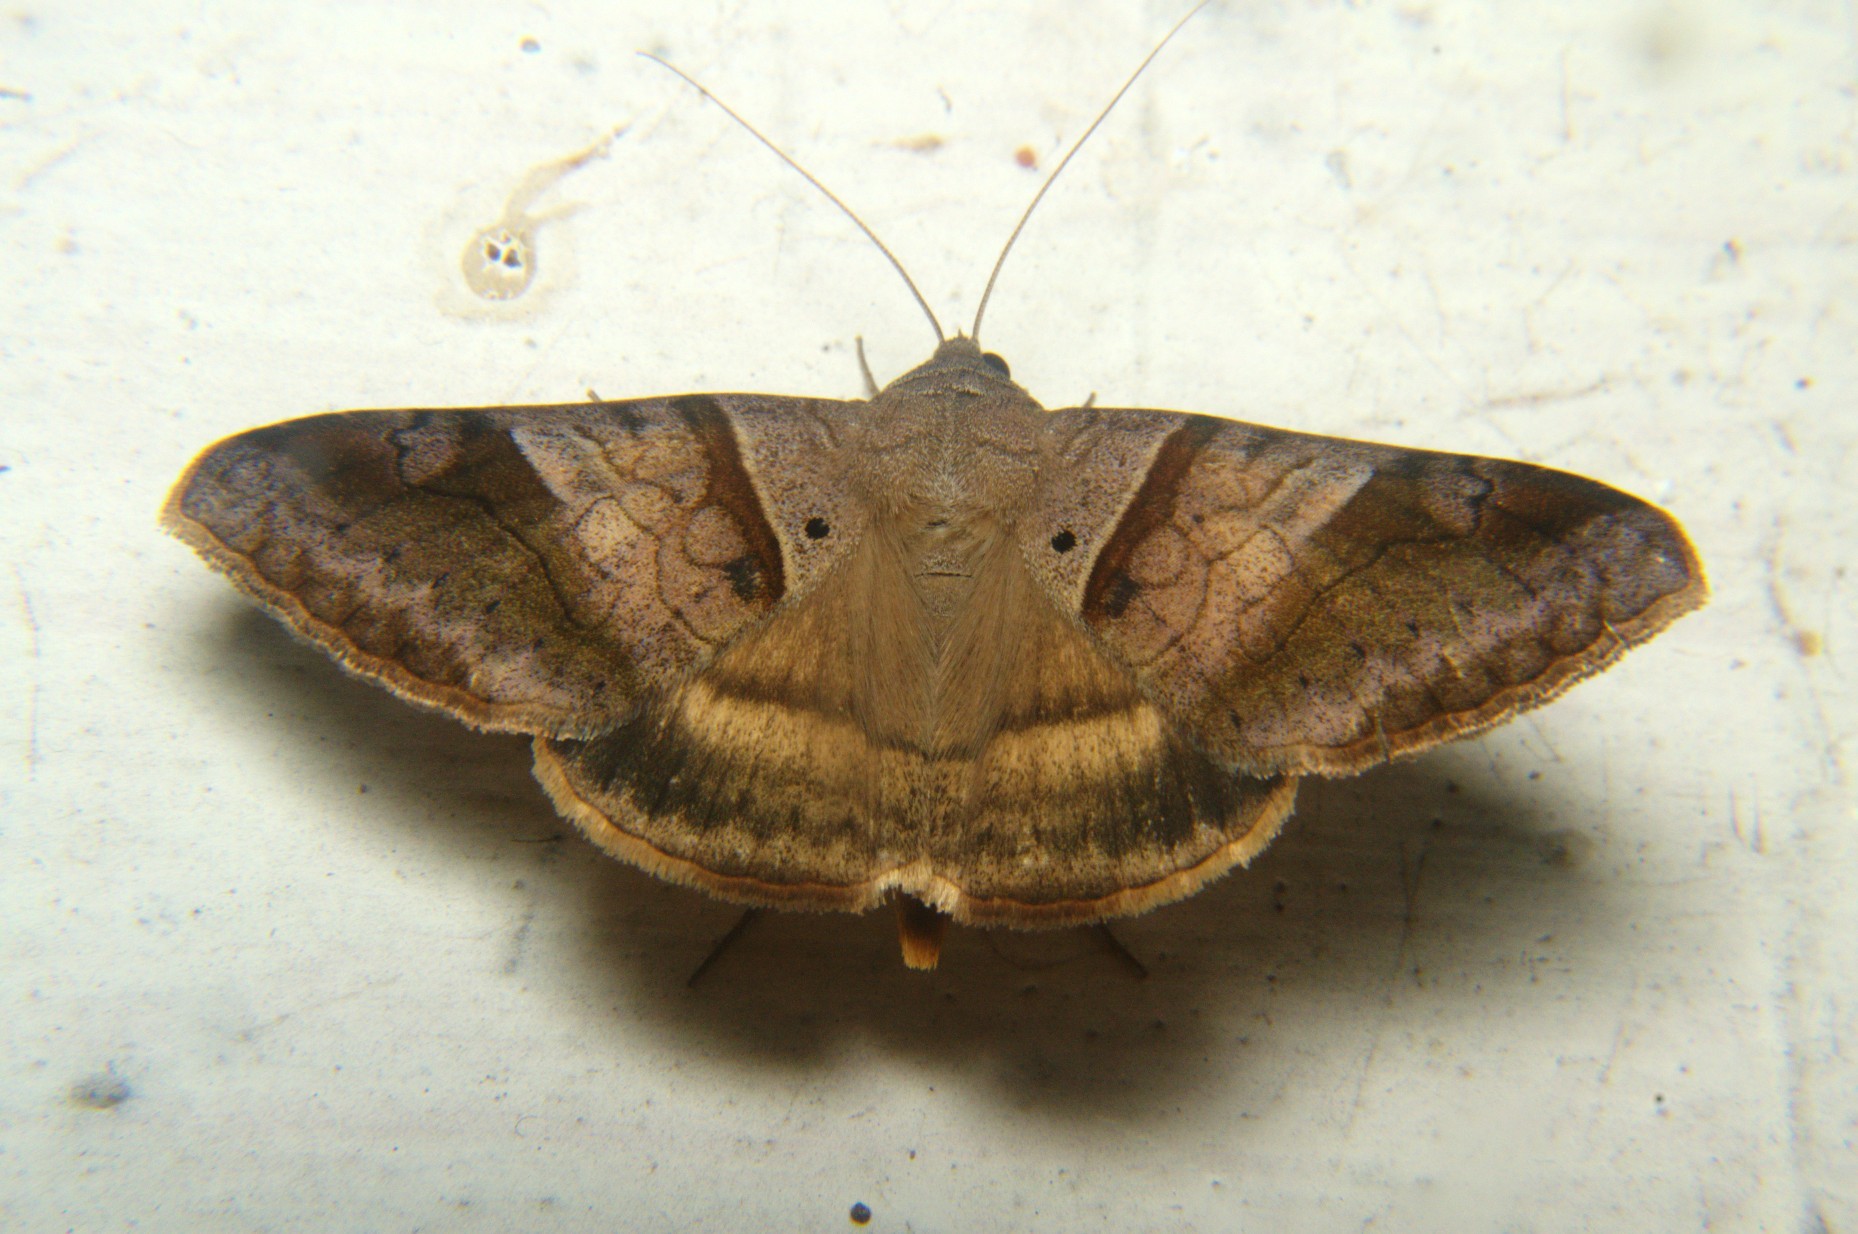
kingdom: Animalia
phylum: Arthropoda
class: Insecta
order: Lepidoptera
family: Erebidae
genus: Mocis
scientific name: Mocis undata
